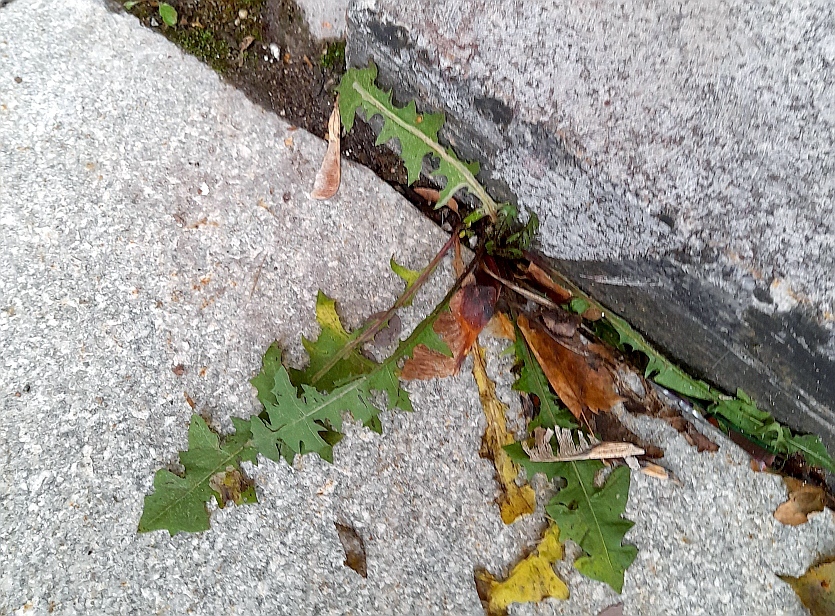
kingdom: Plantae
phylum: Tracheophyta
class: Magnoliopsida
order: Asterales
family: Asteraceae
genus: Taraxacum
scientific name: Taraxacum officinale
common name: Common dandelion
